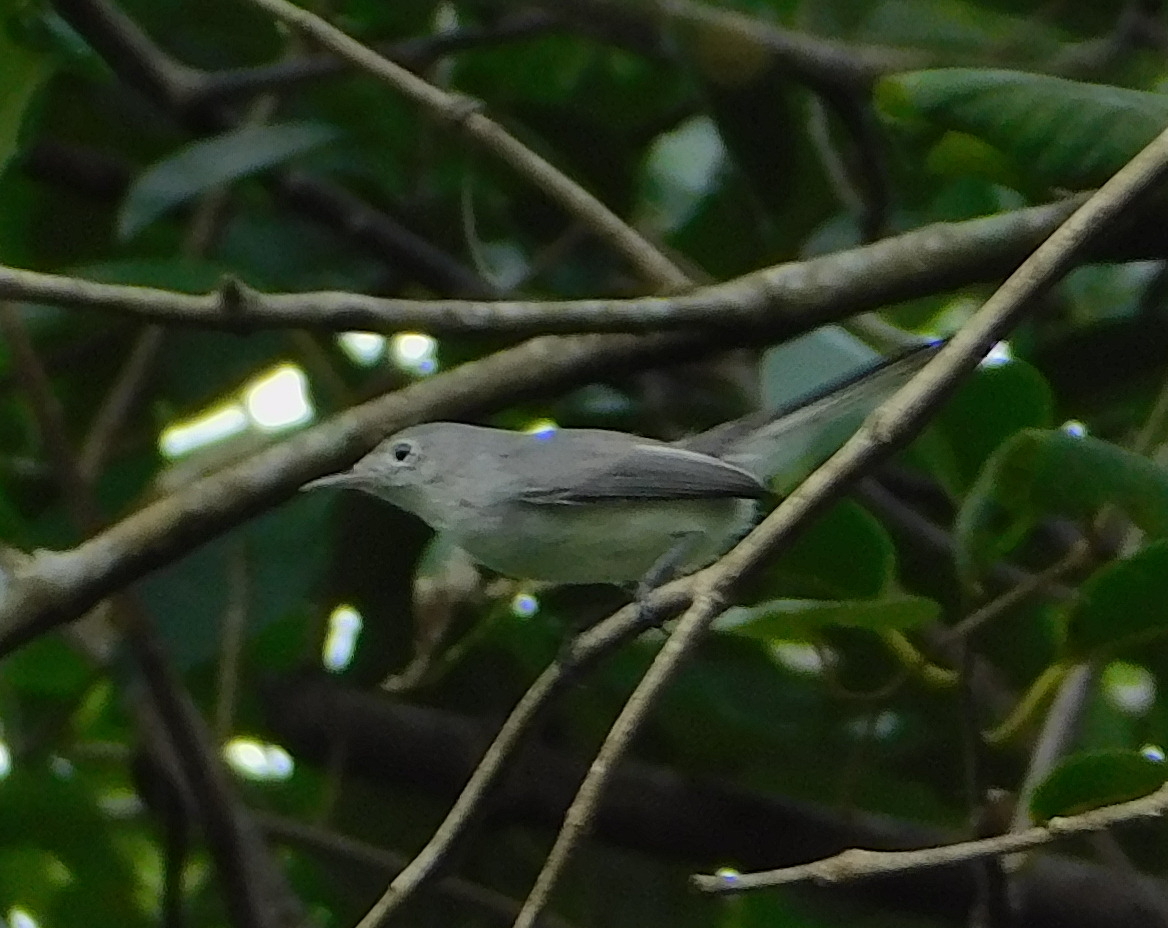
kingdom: Animalia
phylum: Chordata
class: Aves
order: Passeriformes
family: Polioptilidae
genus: Polioptila
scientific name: Polioptila caerulea
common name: Blue-gray gnatcatcher
